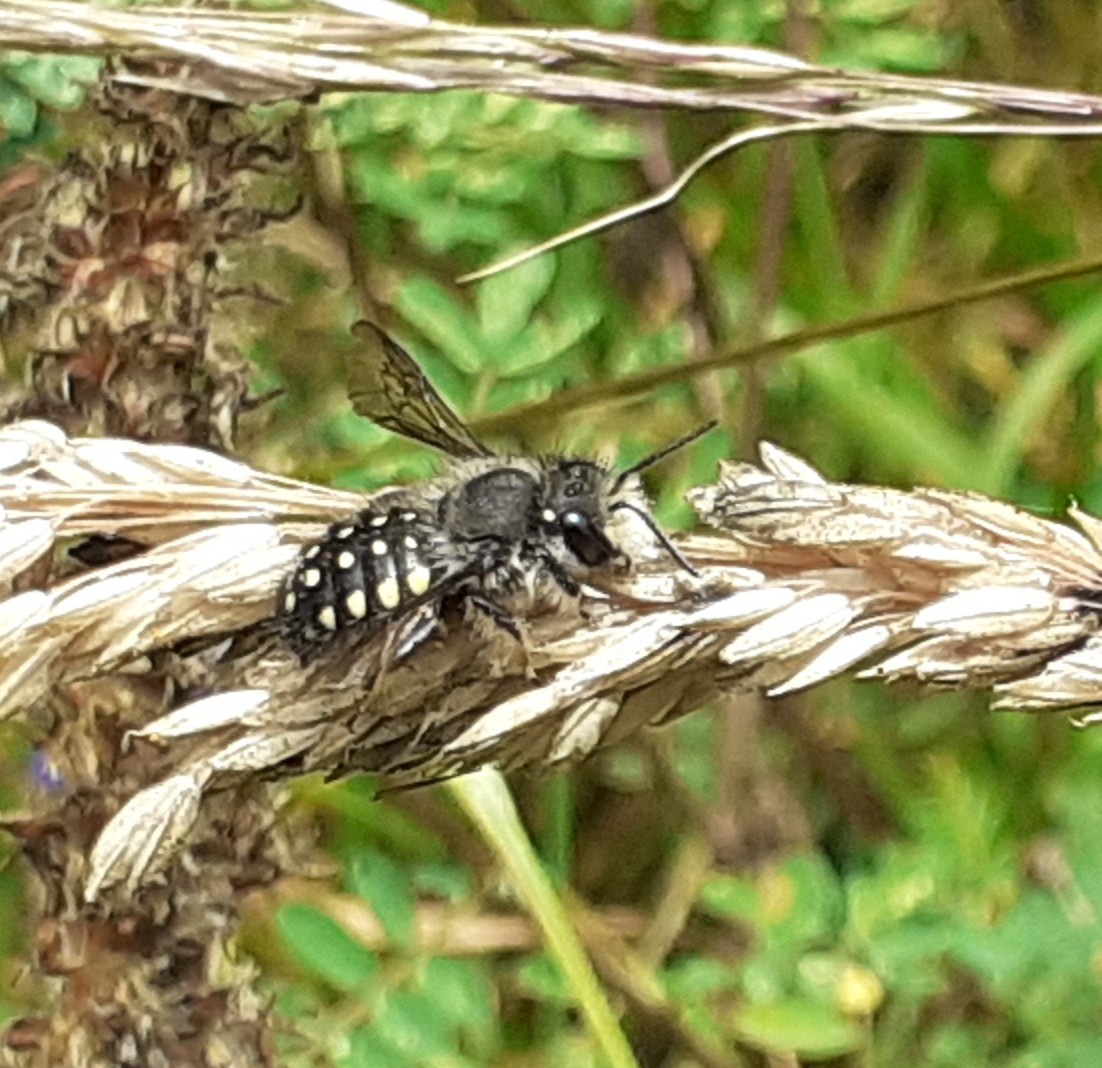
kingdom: Animalia
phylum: Arthropoda
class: Insecta
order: Hymenoptera
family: Megachilidae
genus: Anthidium
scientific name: Anthidium vigintiduopunctatum
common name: Dwarf bee of floreana
